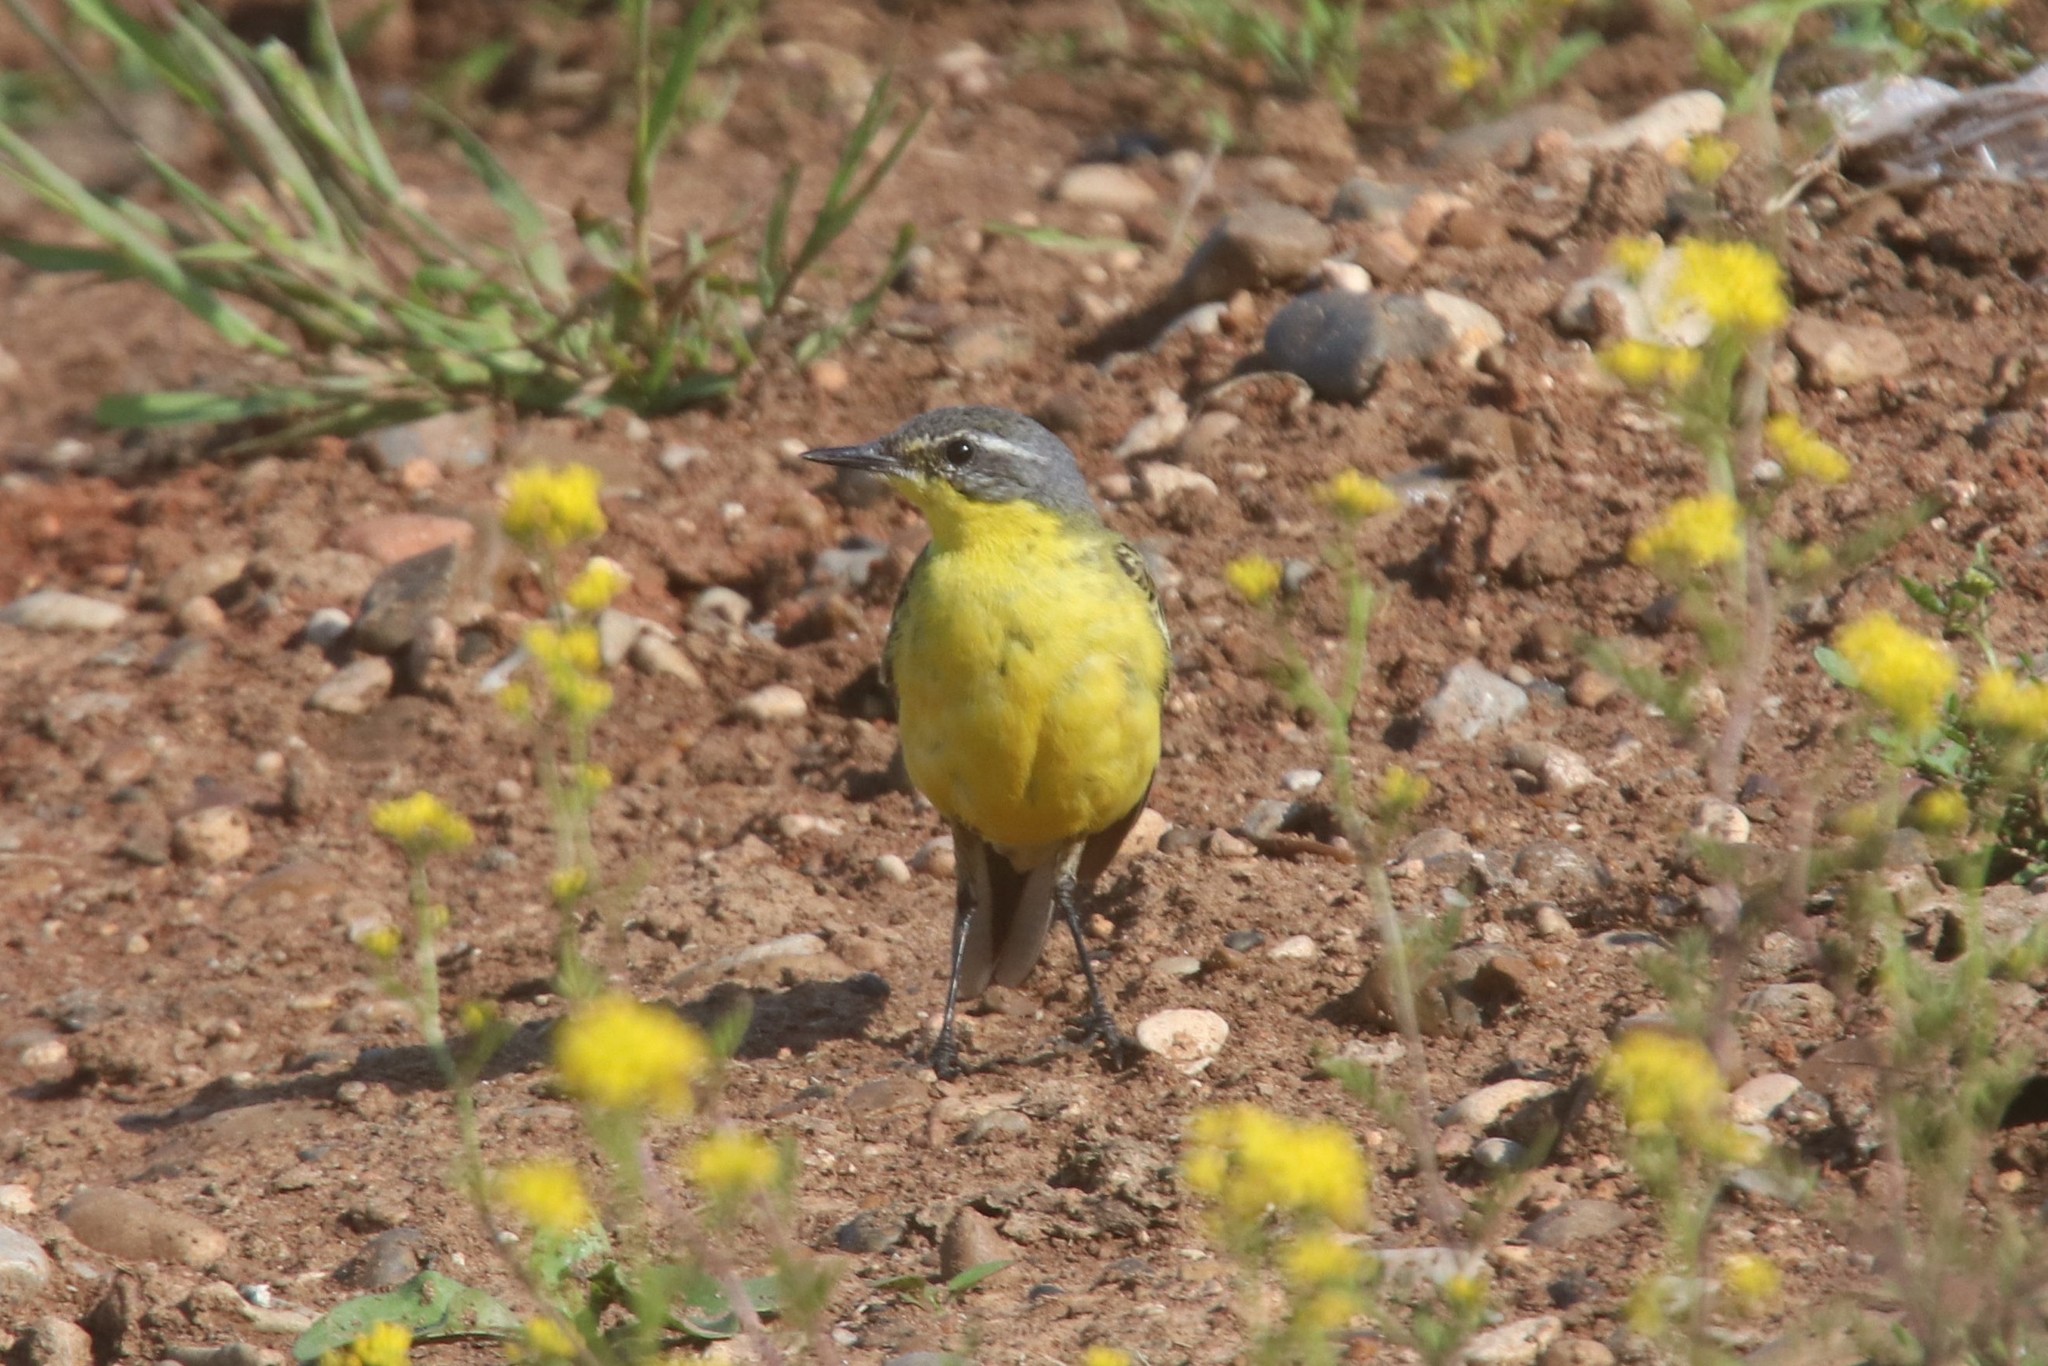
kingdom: Animalia
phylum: Chordata
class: Aves
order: Passeriformes
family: Motacillidae
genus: Motacilla
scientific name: Motacilla flava
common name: Western yellow wagtail
